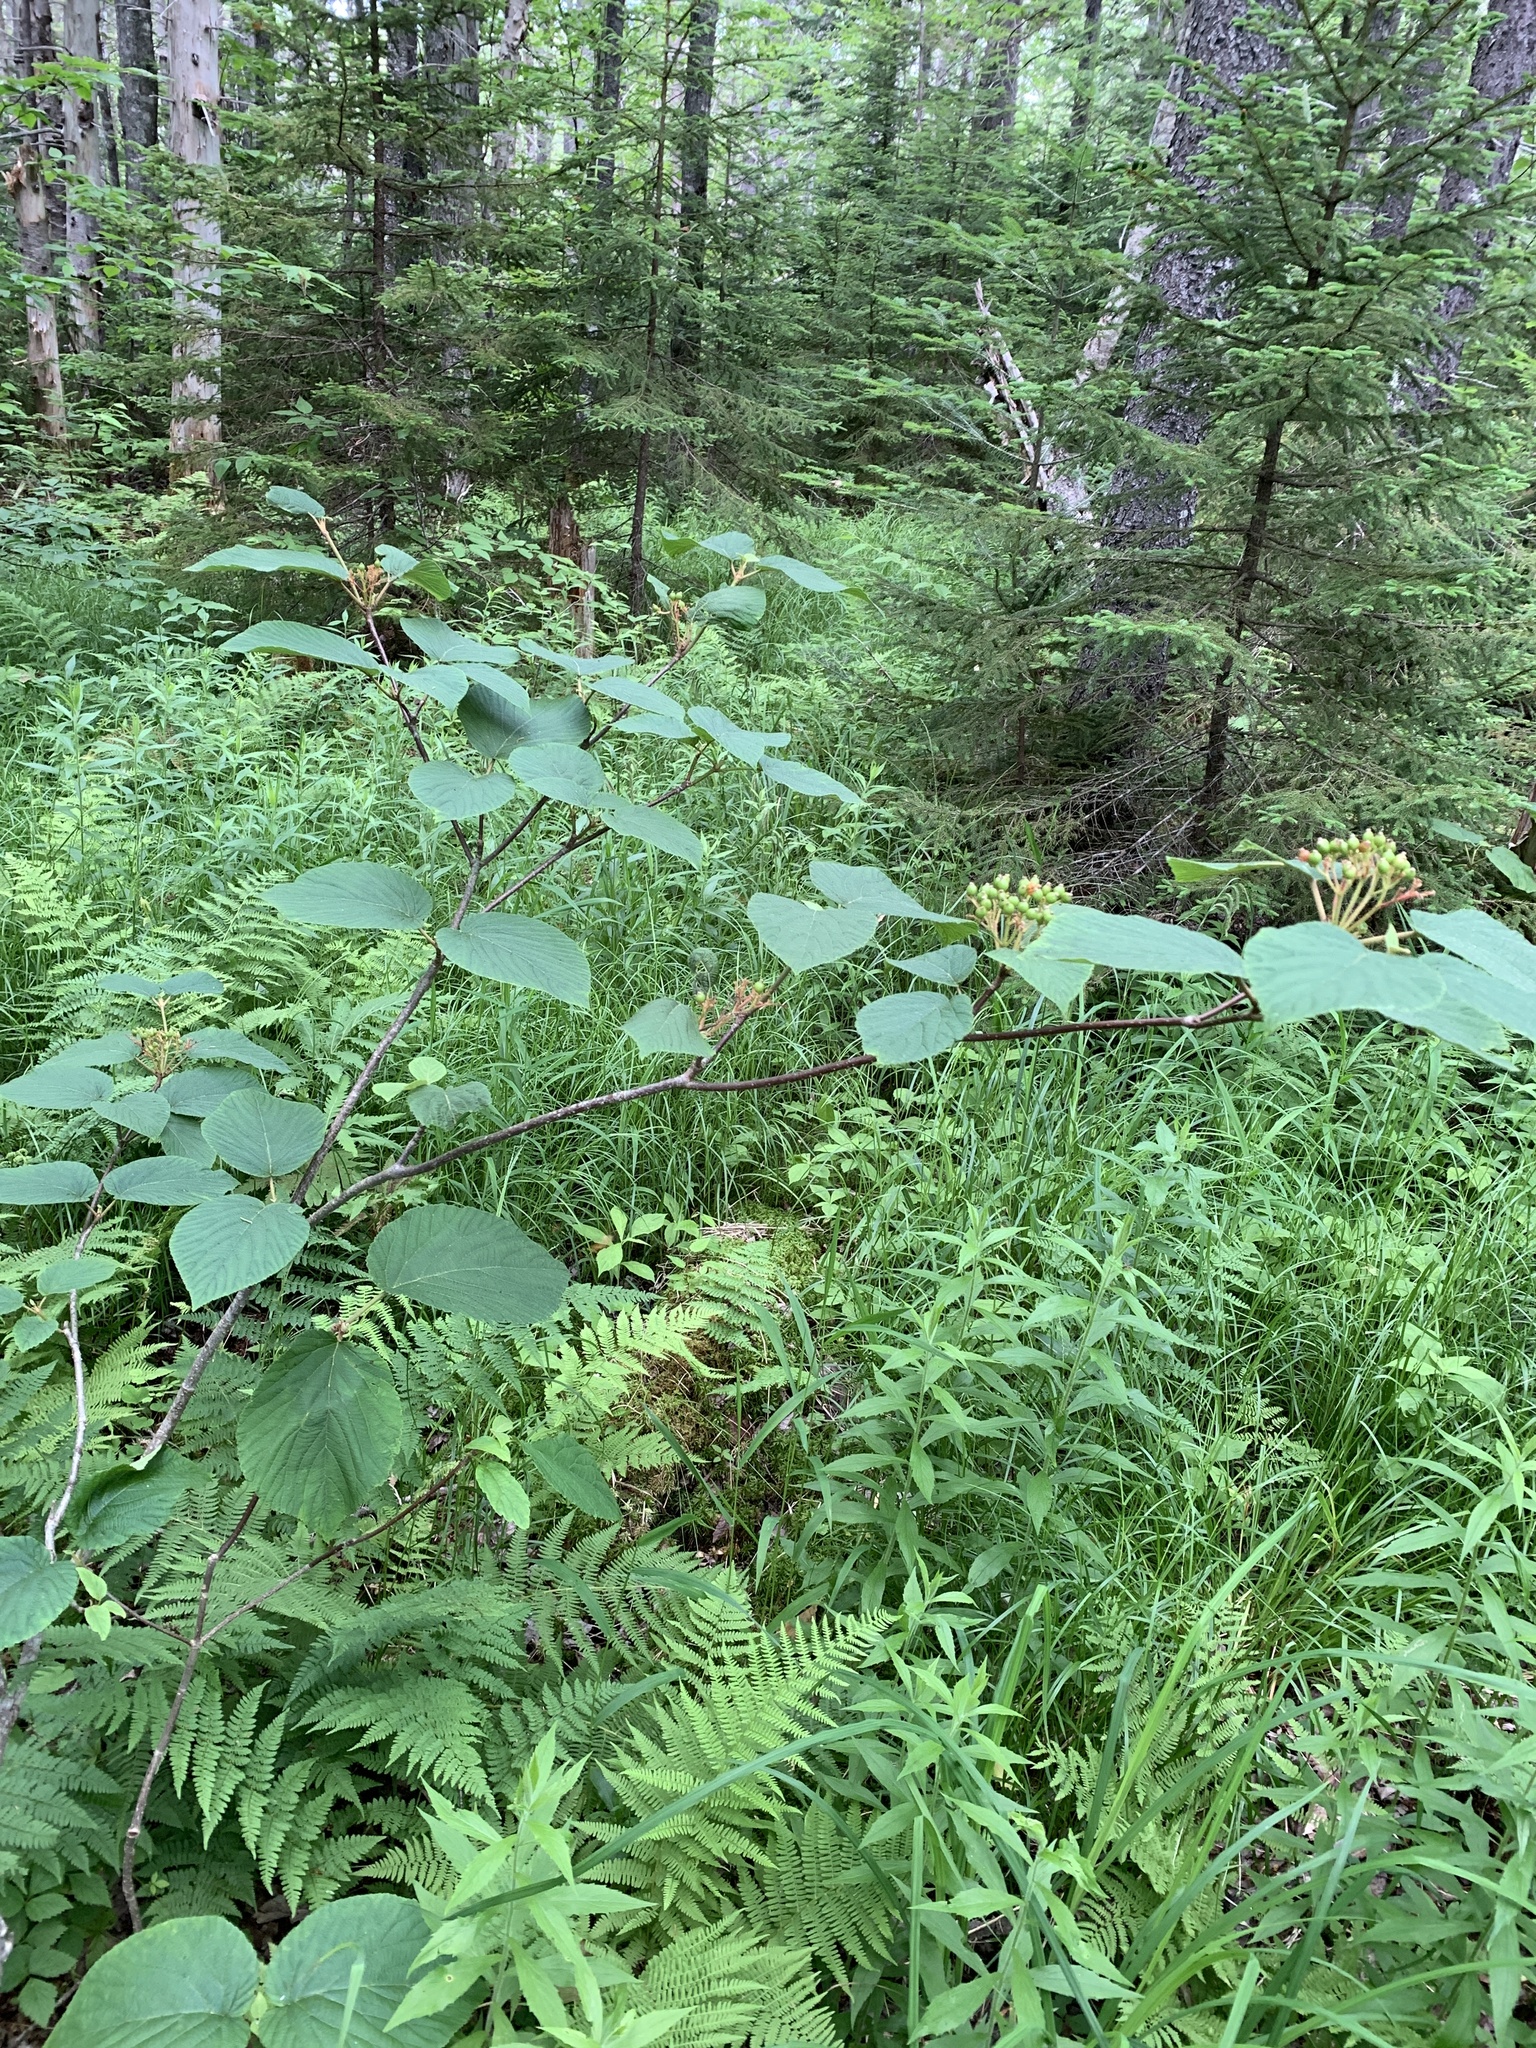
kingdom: Plantae
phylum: Tracheophyta
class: Magnoliopsida
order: Dipsacales
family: Viburnaceae
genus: Viburnum
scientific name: Viburnum lantanoides
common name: Hobblebush
